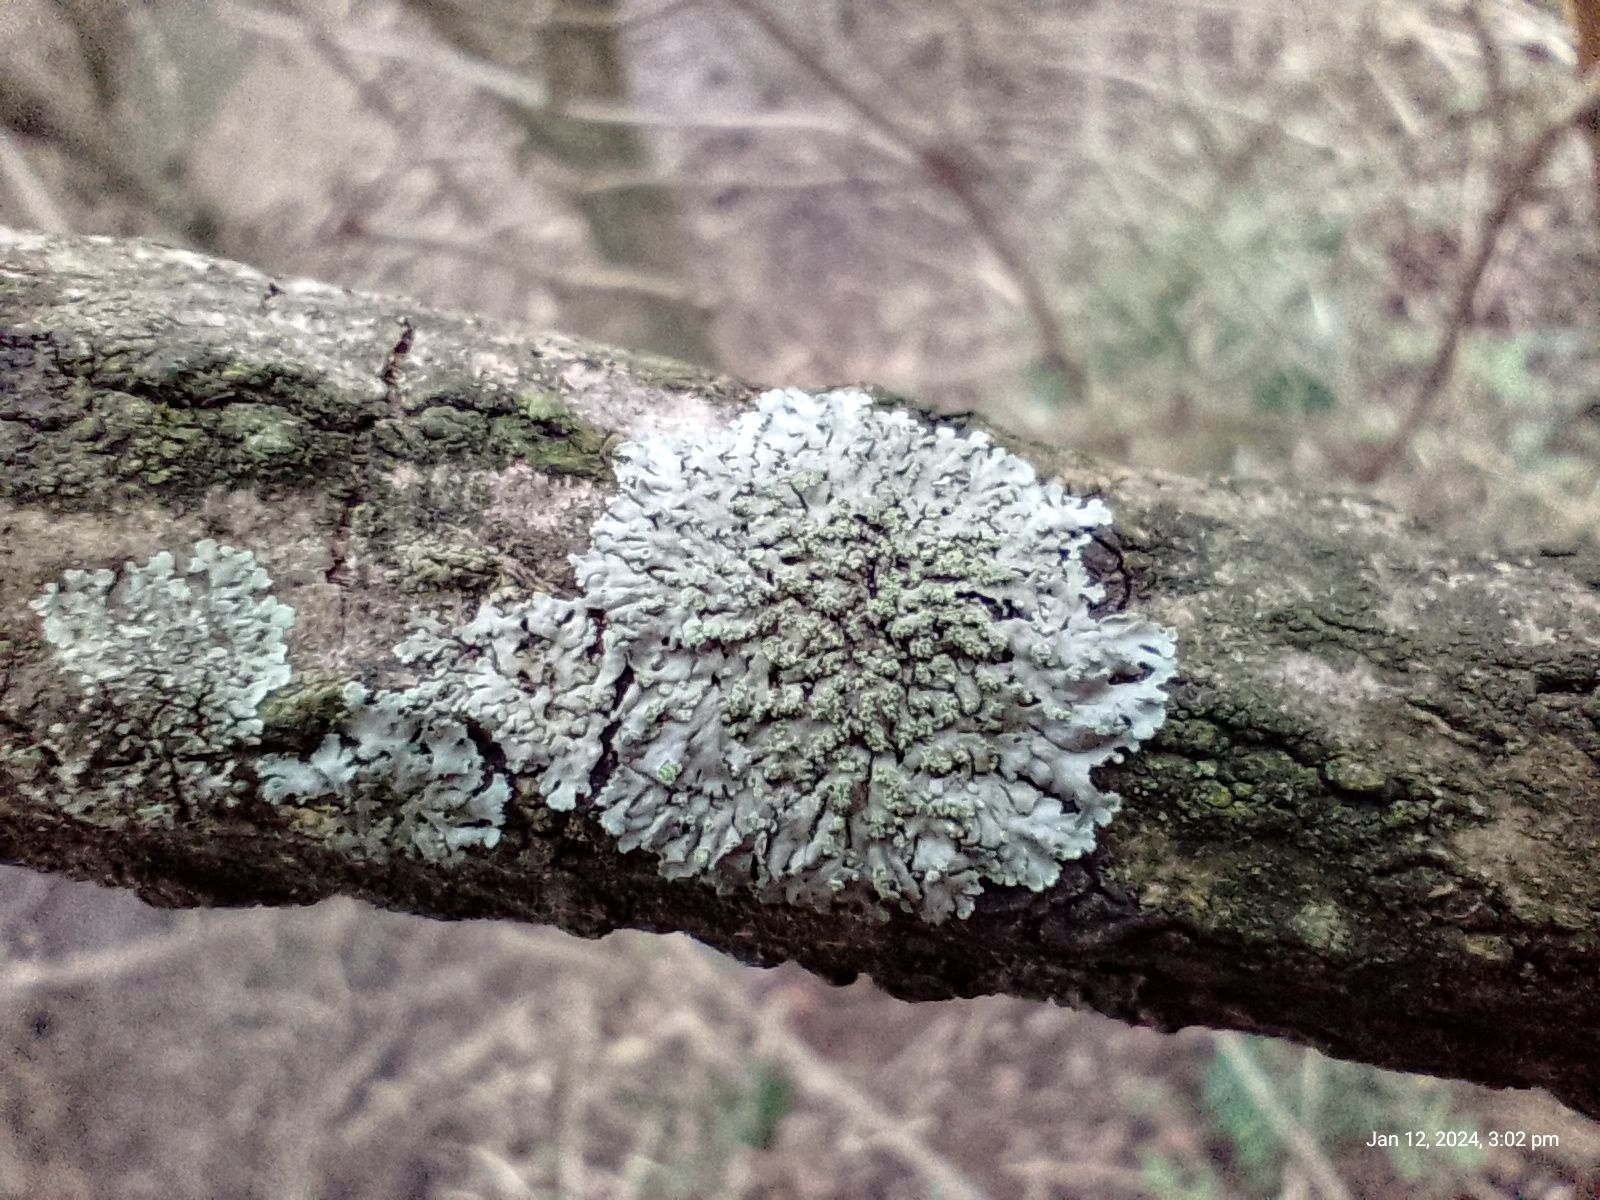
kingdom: Fungi
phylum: Ascomycota
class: Lecanoromycetes
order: Caliciales
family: Physciaceae
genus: Phaeophyscia
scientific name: Phaeophyscia orbicularis
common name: Mealy shadow lichen
